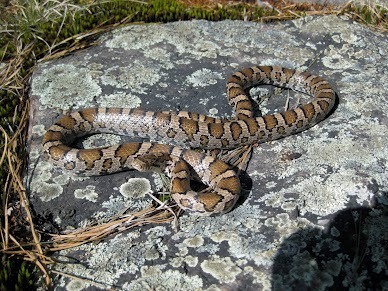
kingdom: Animalia
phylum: Chordata
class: Squamata
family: Colubridae
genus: Lampropeltis
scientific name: Lampropeltis triangulum
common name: Eastern milksnake
